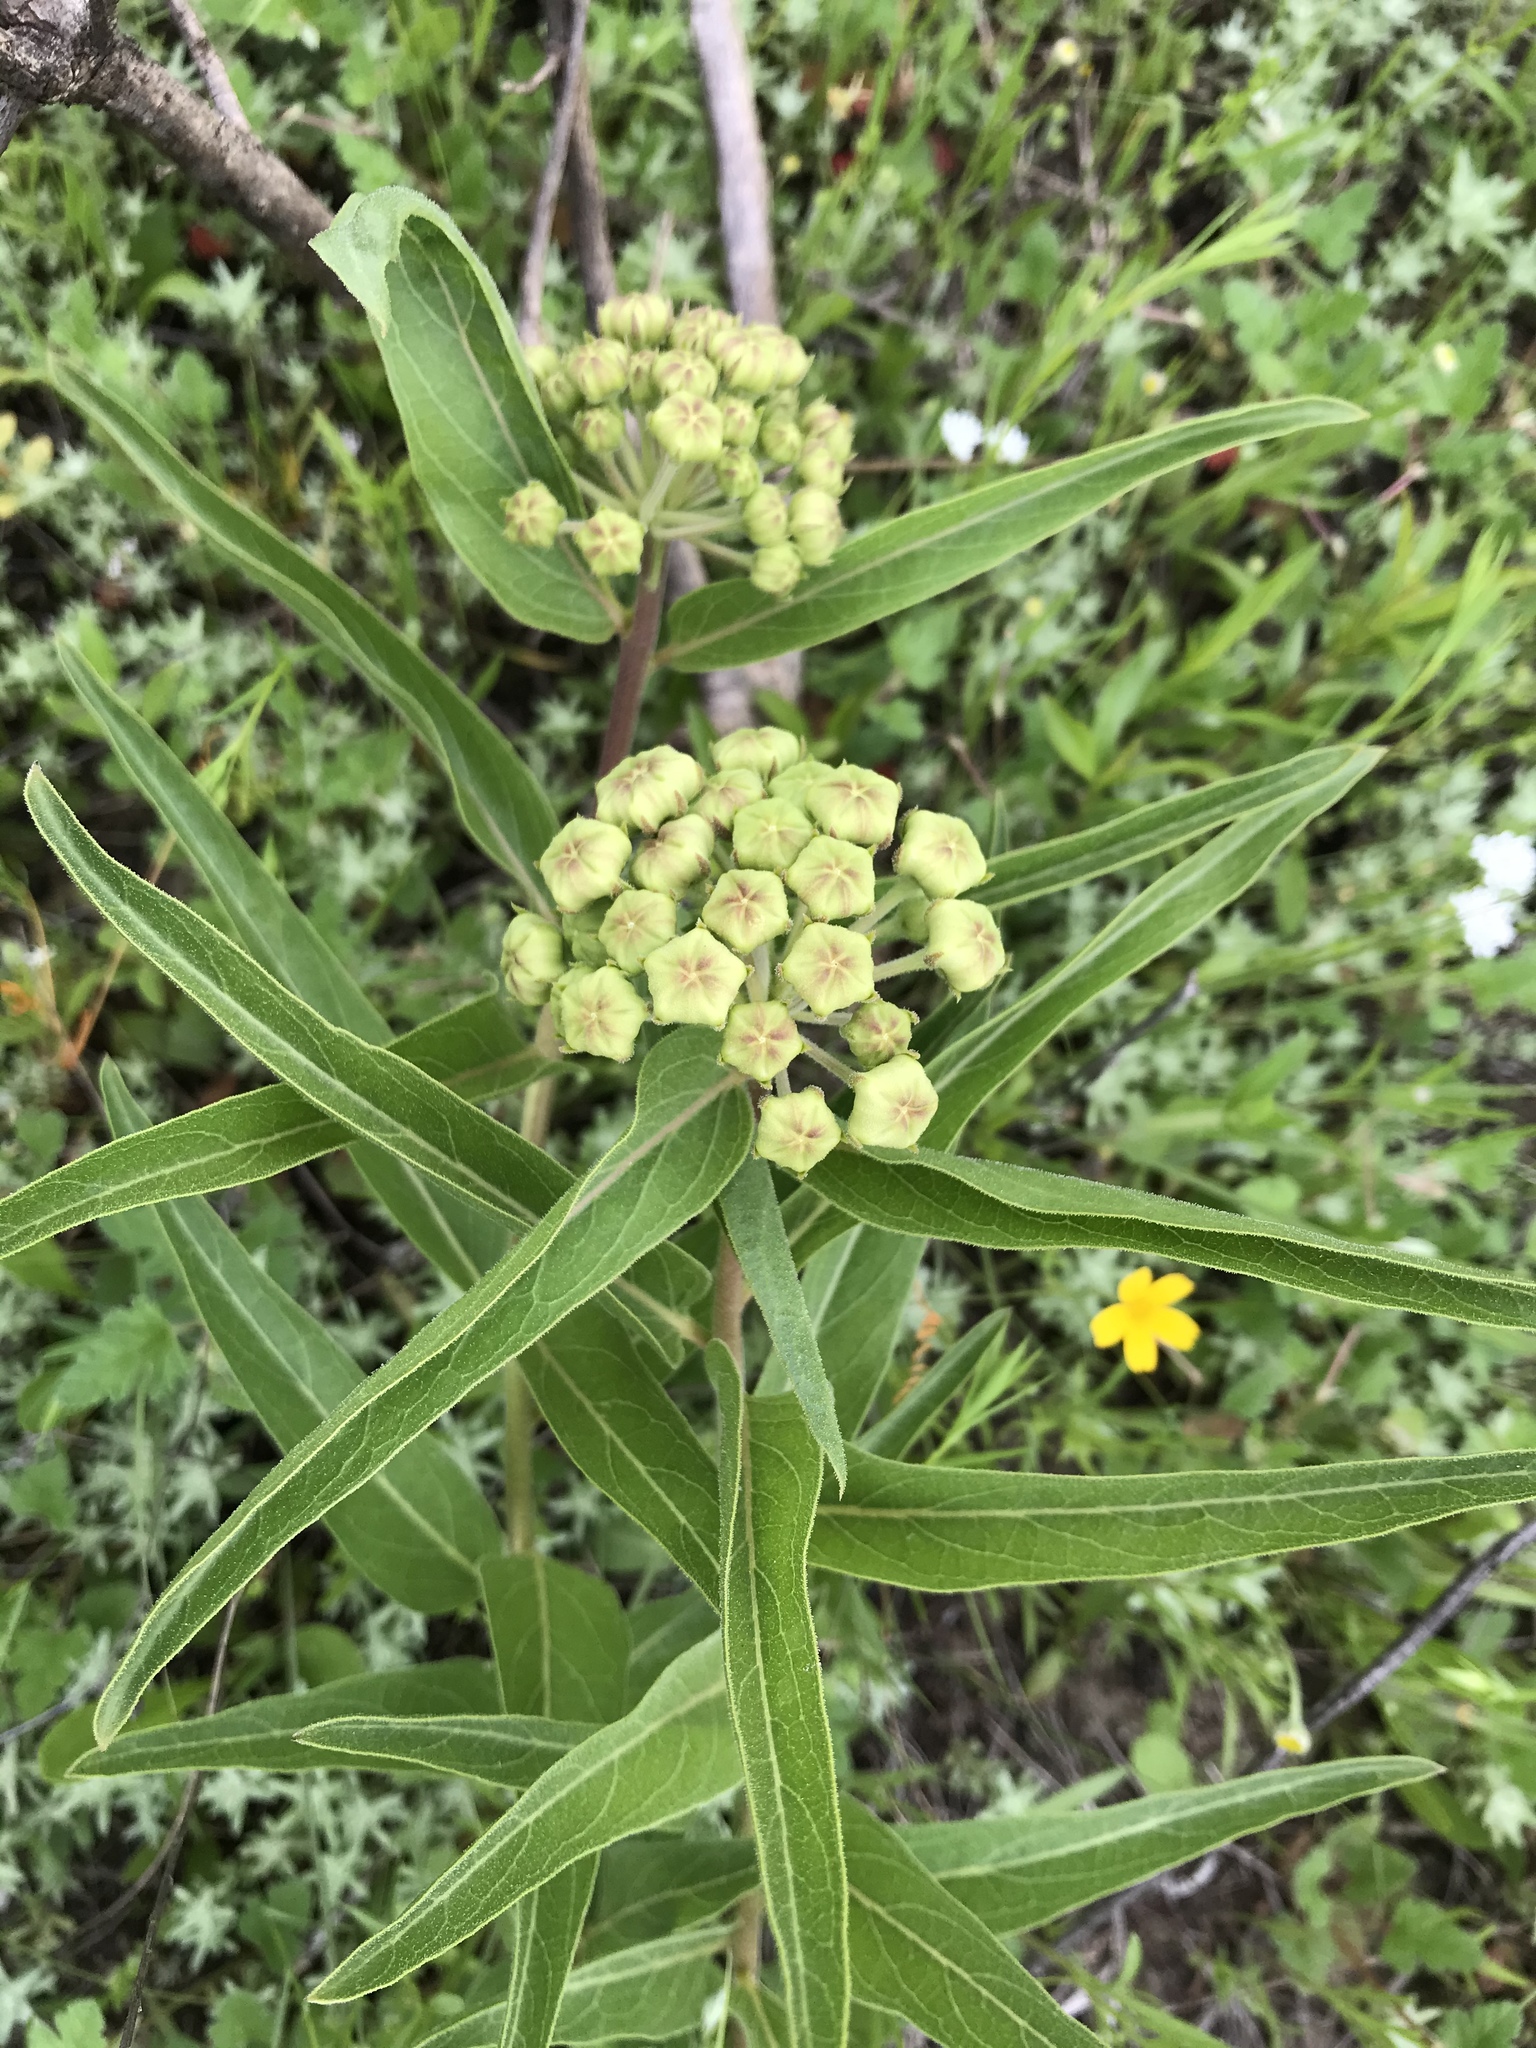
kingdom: Plantae
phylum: Tracheophyta
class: Magnoliopsida
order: Gentianales
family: Apocynaceae
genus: Asclepias
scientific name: Asclepias asperula
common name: Antelope horns
